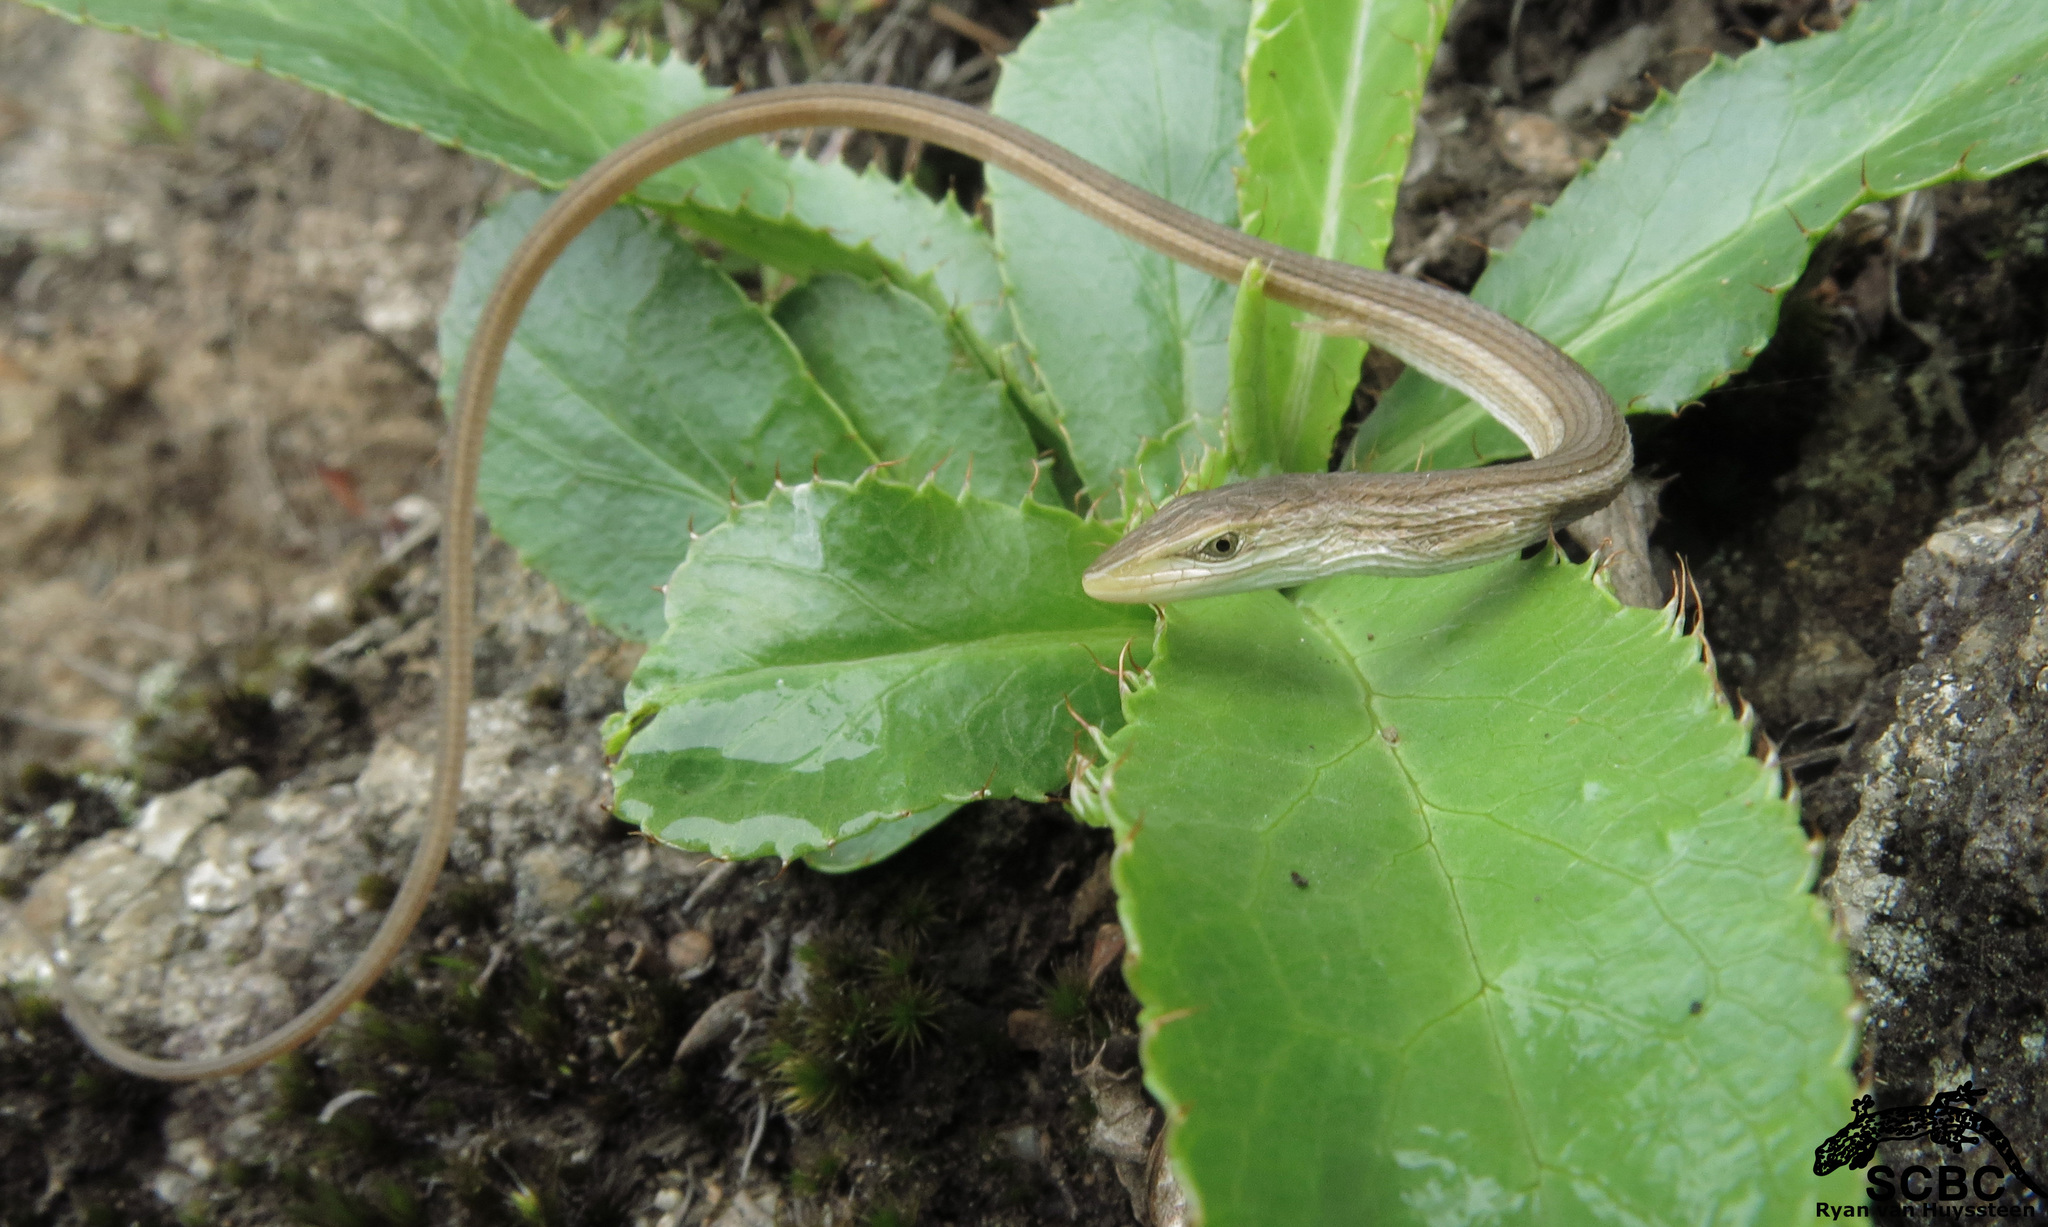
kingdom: Animalia
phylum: Chordata
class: Squamata
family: Cordylidae
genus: Chamaesaura
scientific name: Chamaesaura anguina
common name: Cape snake lizard
